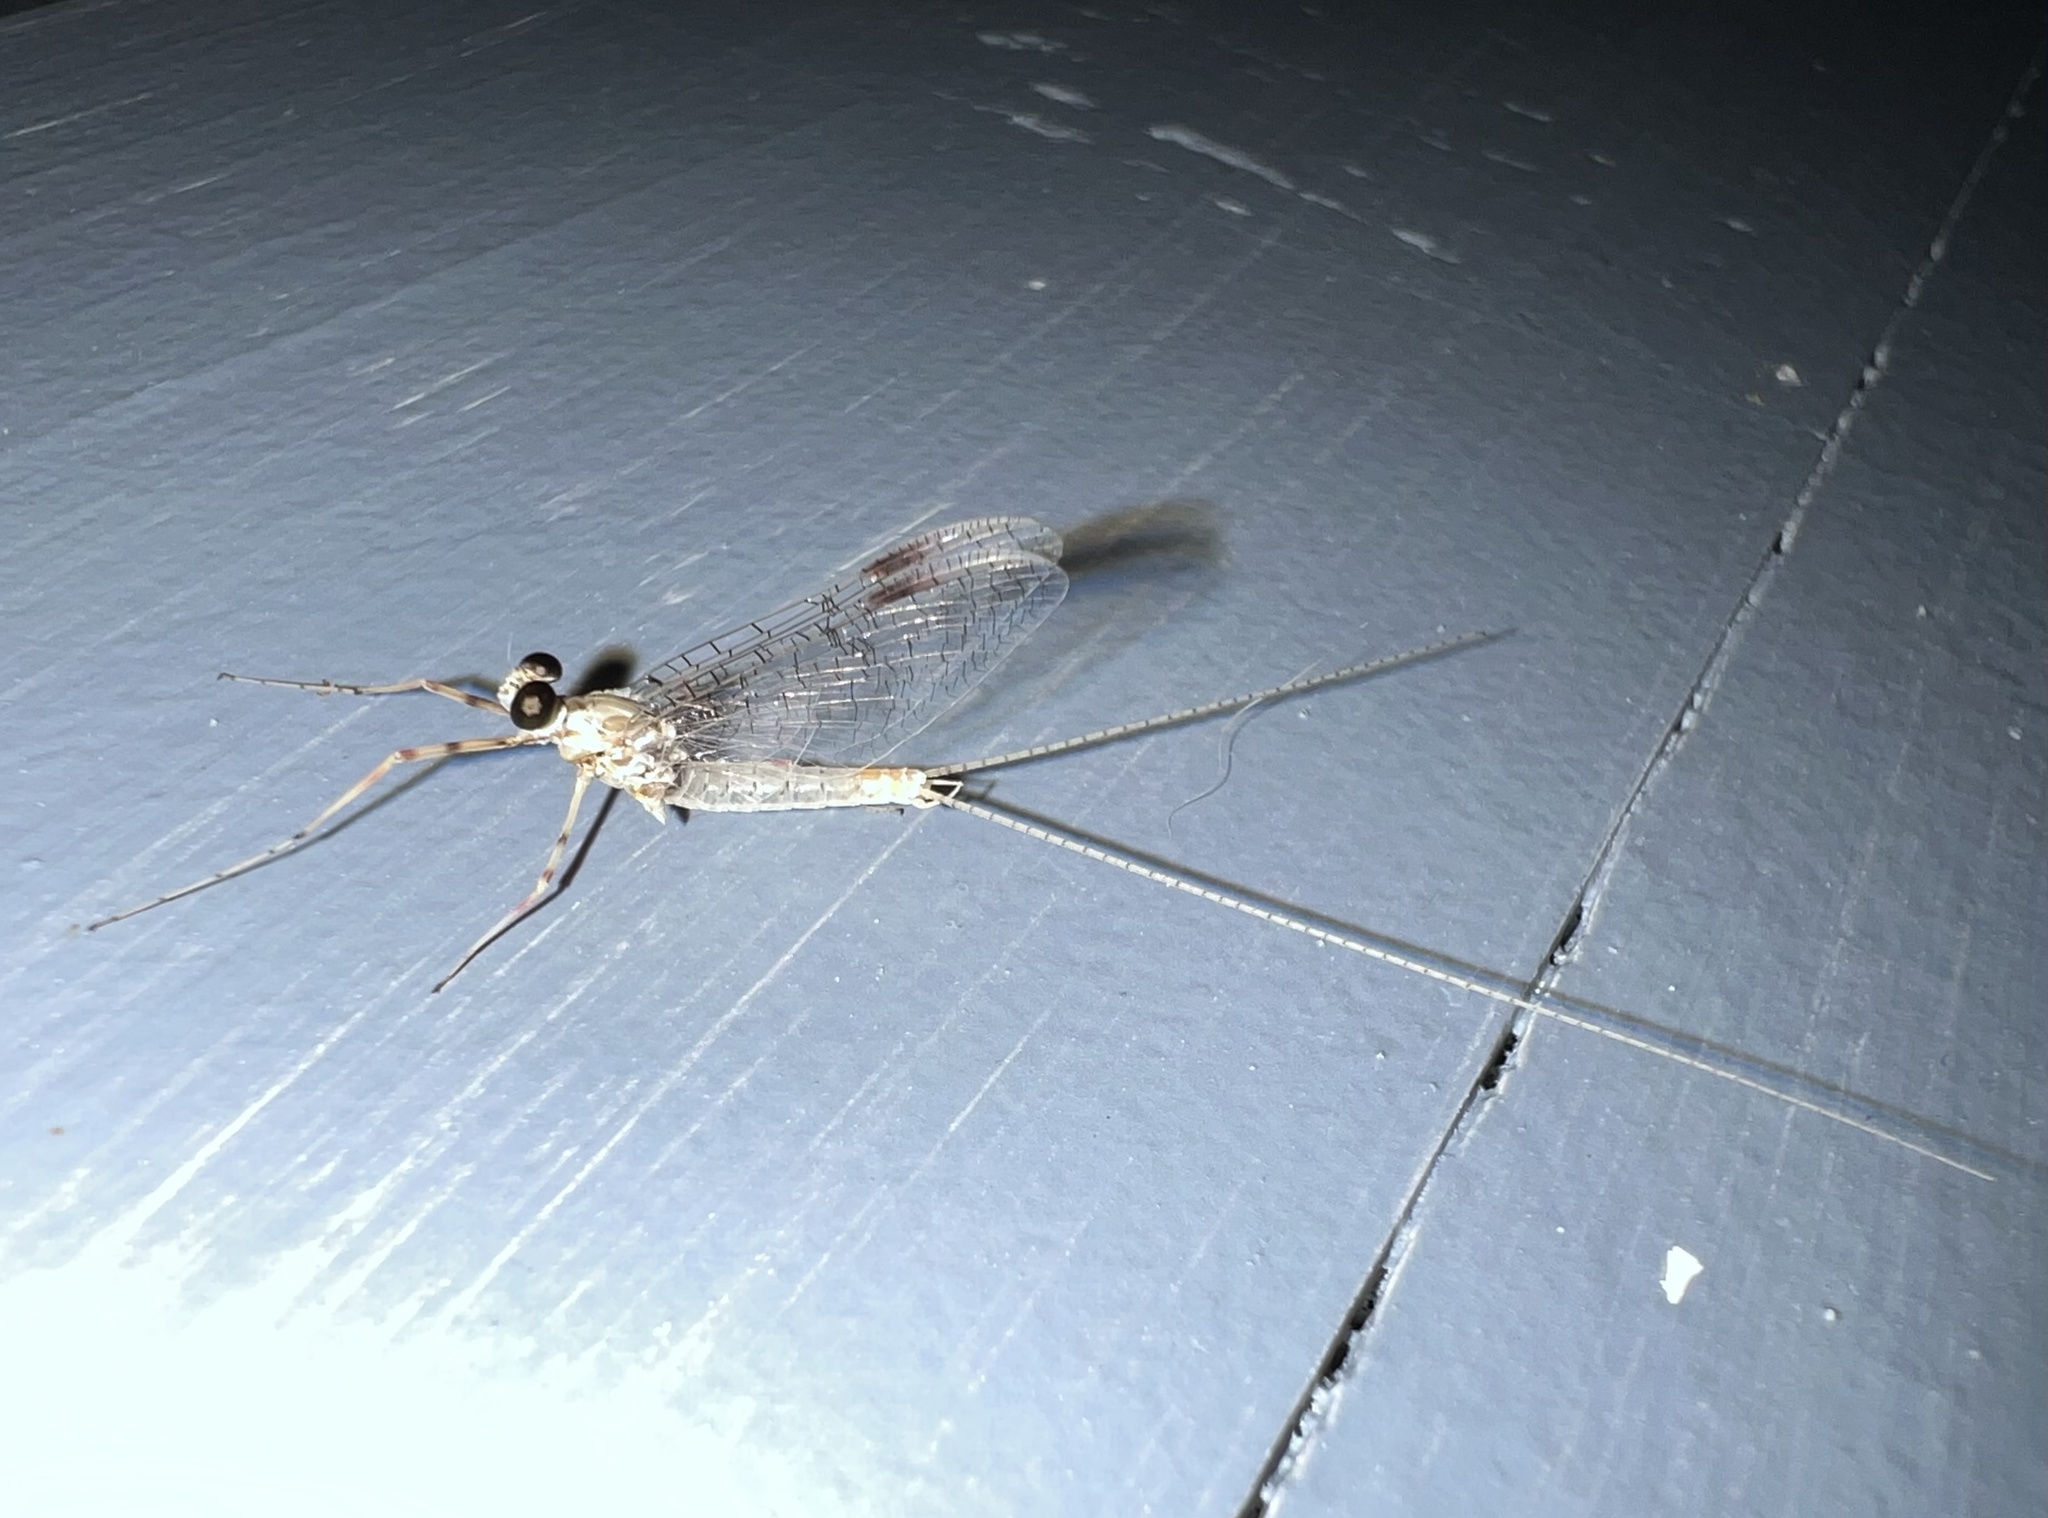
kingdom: Animalia
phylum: Arthropoda
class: Insecta
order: Ephemeroptera
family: Heptageniidae
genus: Stenonema
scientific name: Stenonema femoratum
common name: Dark cahill
